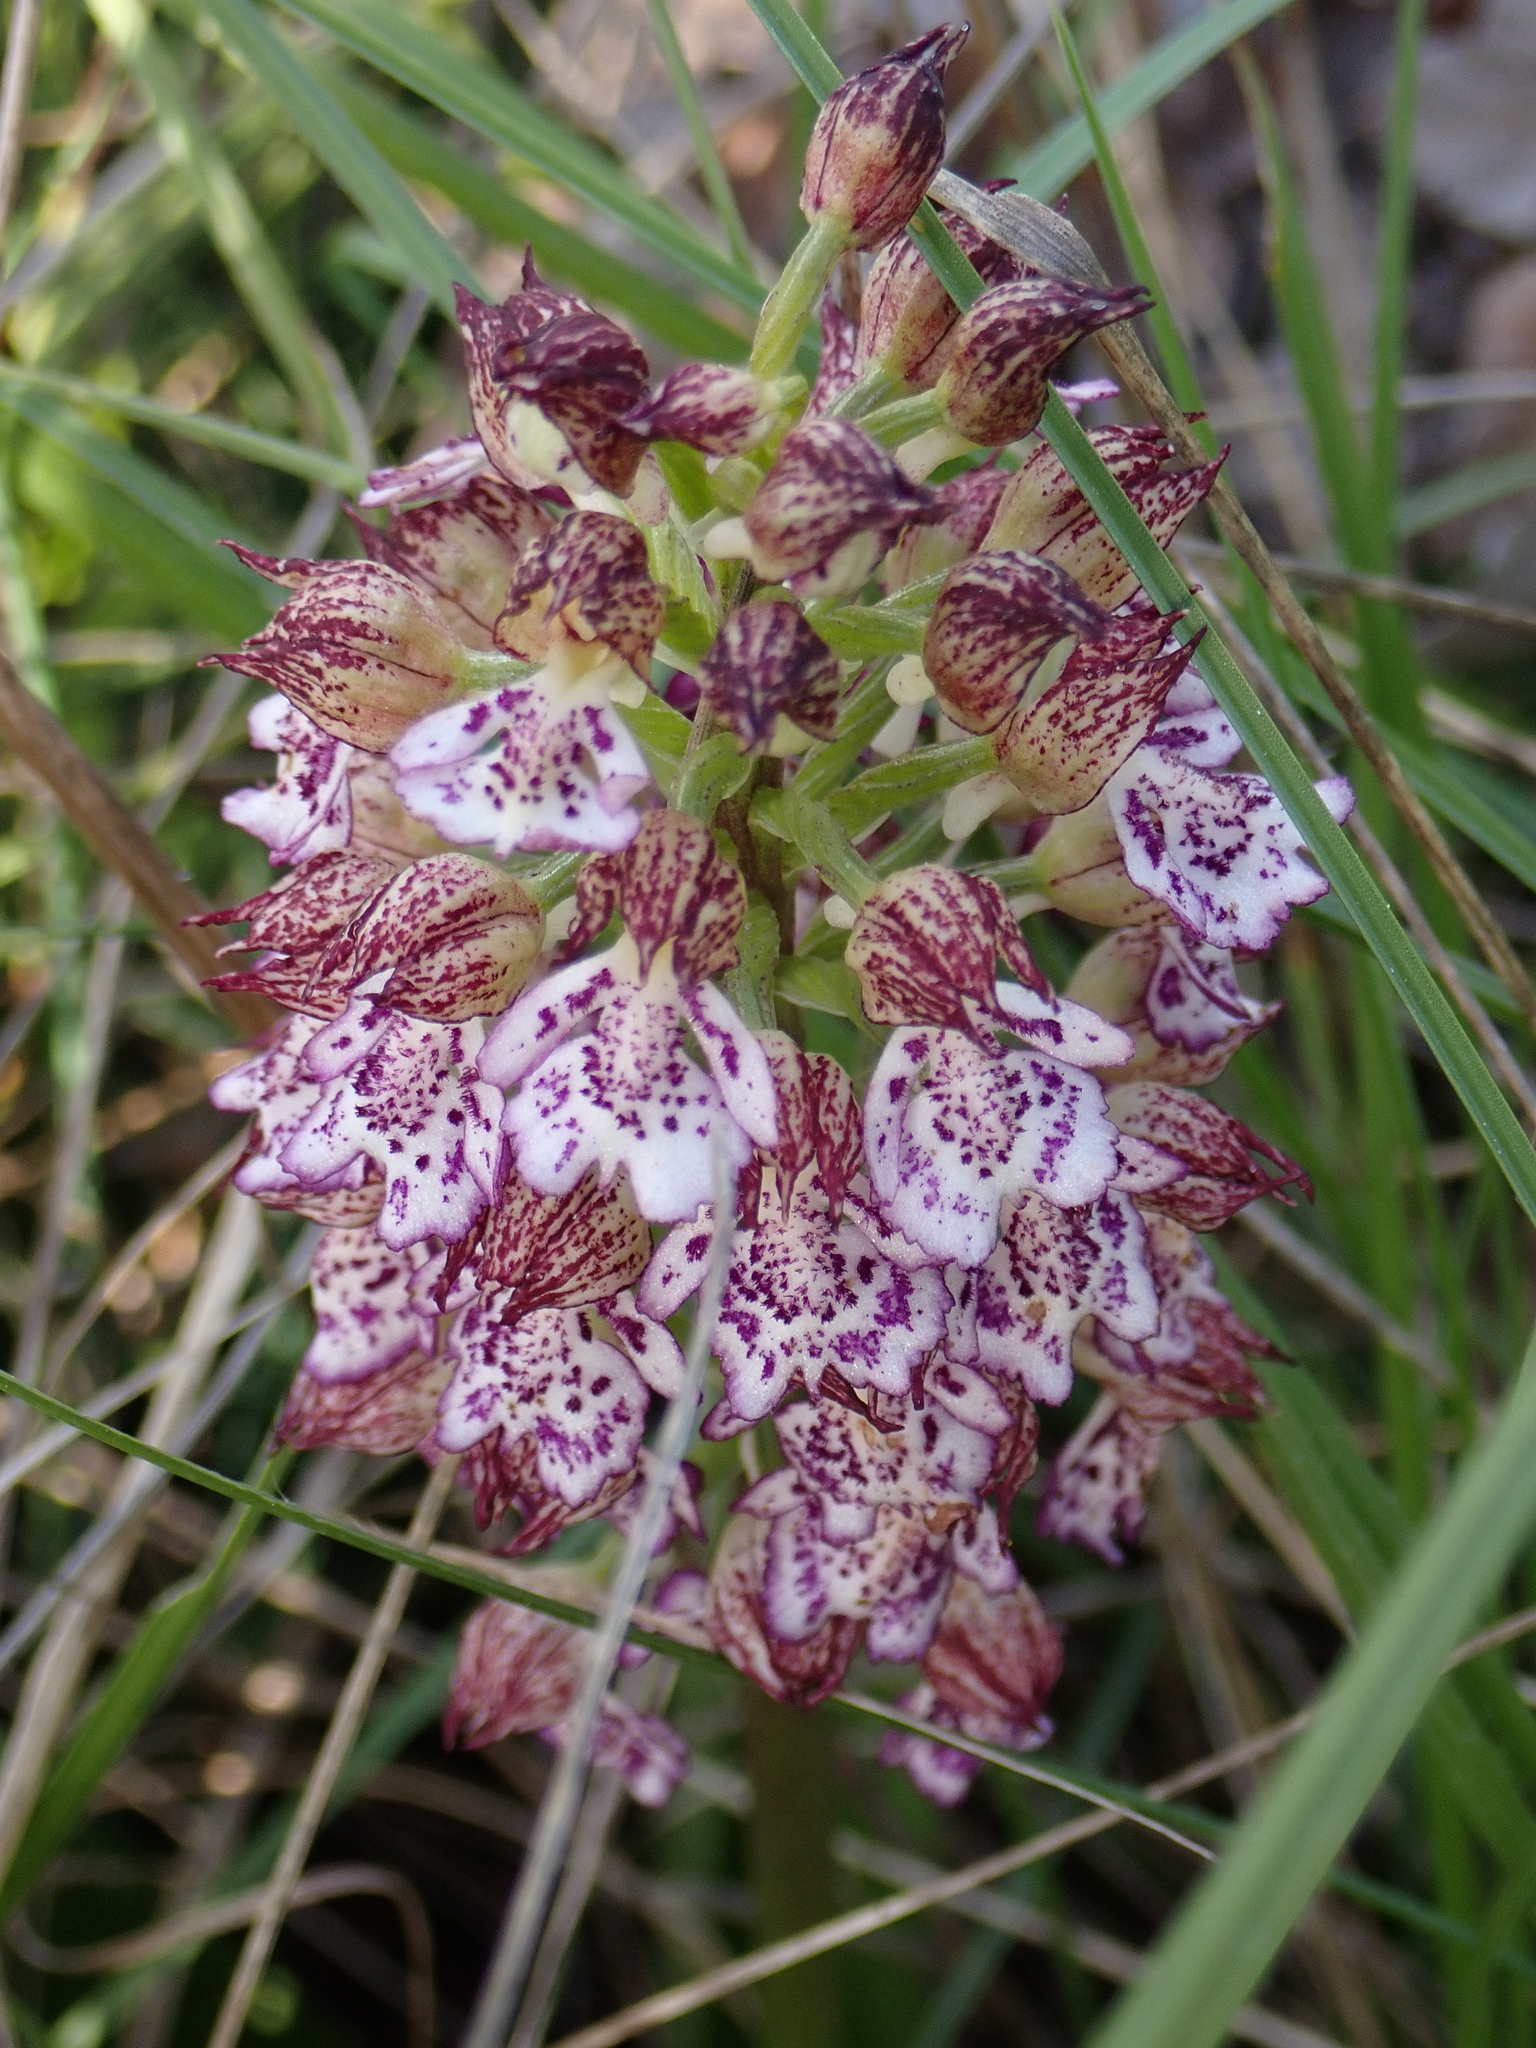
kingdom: Plantae
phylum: Tracheophyta
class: Liliopsida
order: Asparagales
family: Orchidaceae
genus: Orchis
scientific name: Orchis purpurea
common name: Lady orchid
